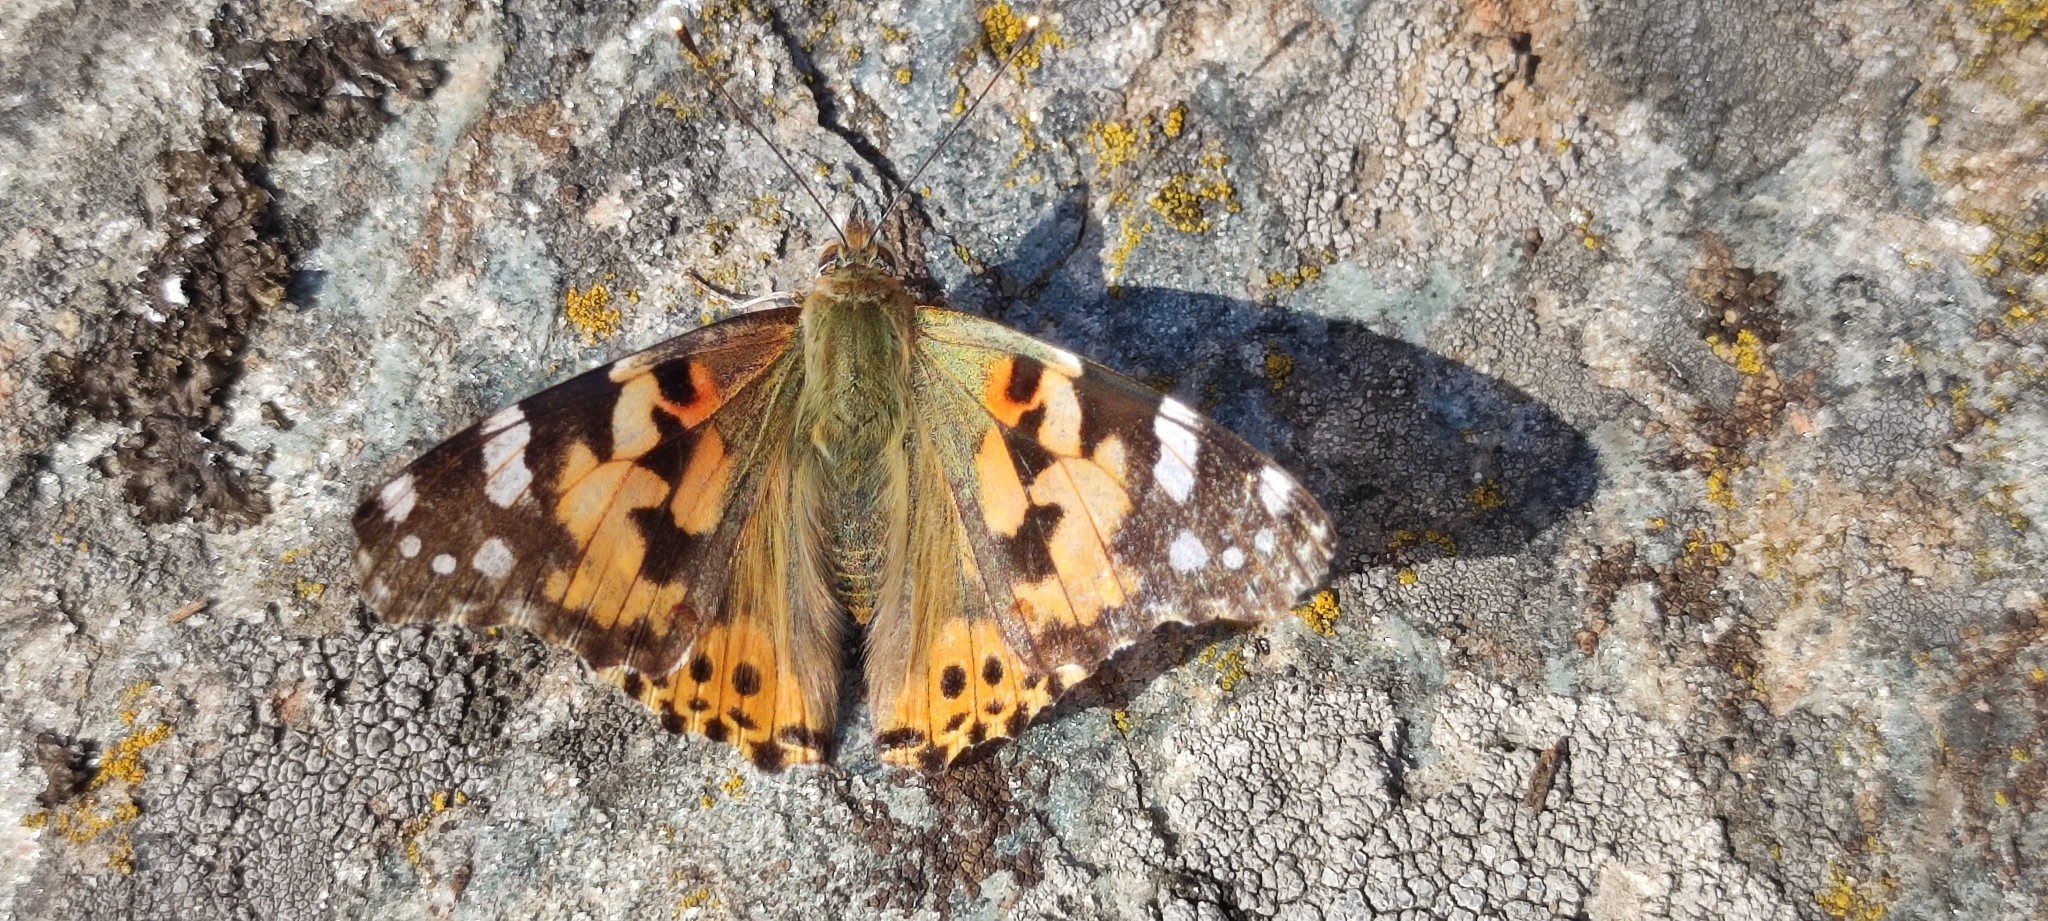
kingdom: Animalia
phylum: Arthropoda
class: Insecta
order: Lepidoptera
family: Nymphalidae
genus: Vanessa
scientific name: Vanessa cardui
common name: Painted lady
